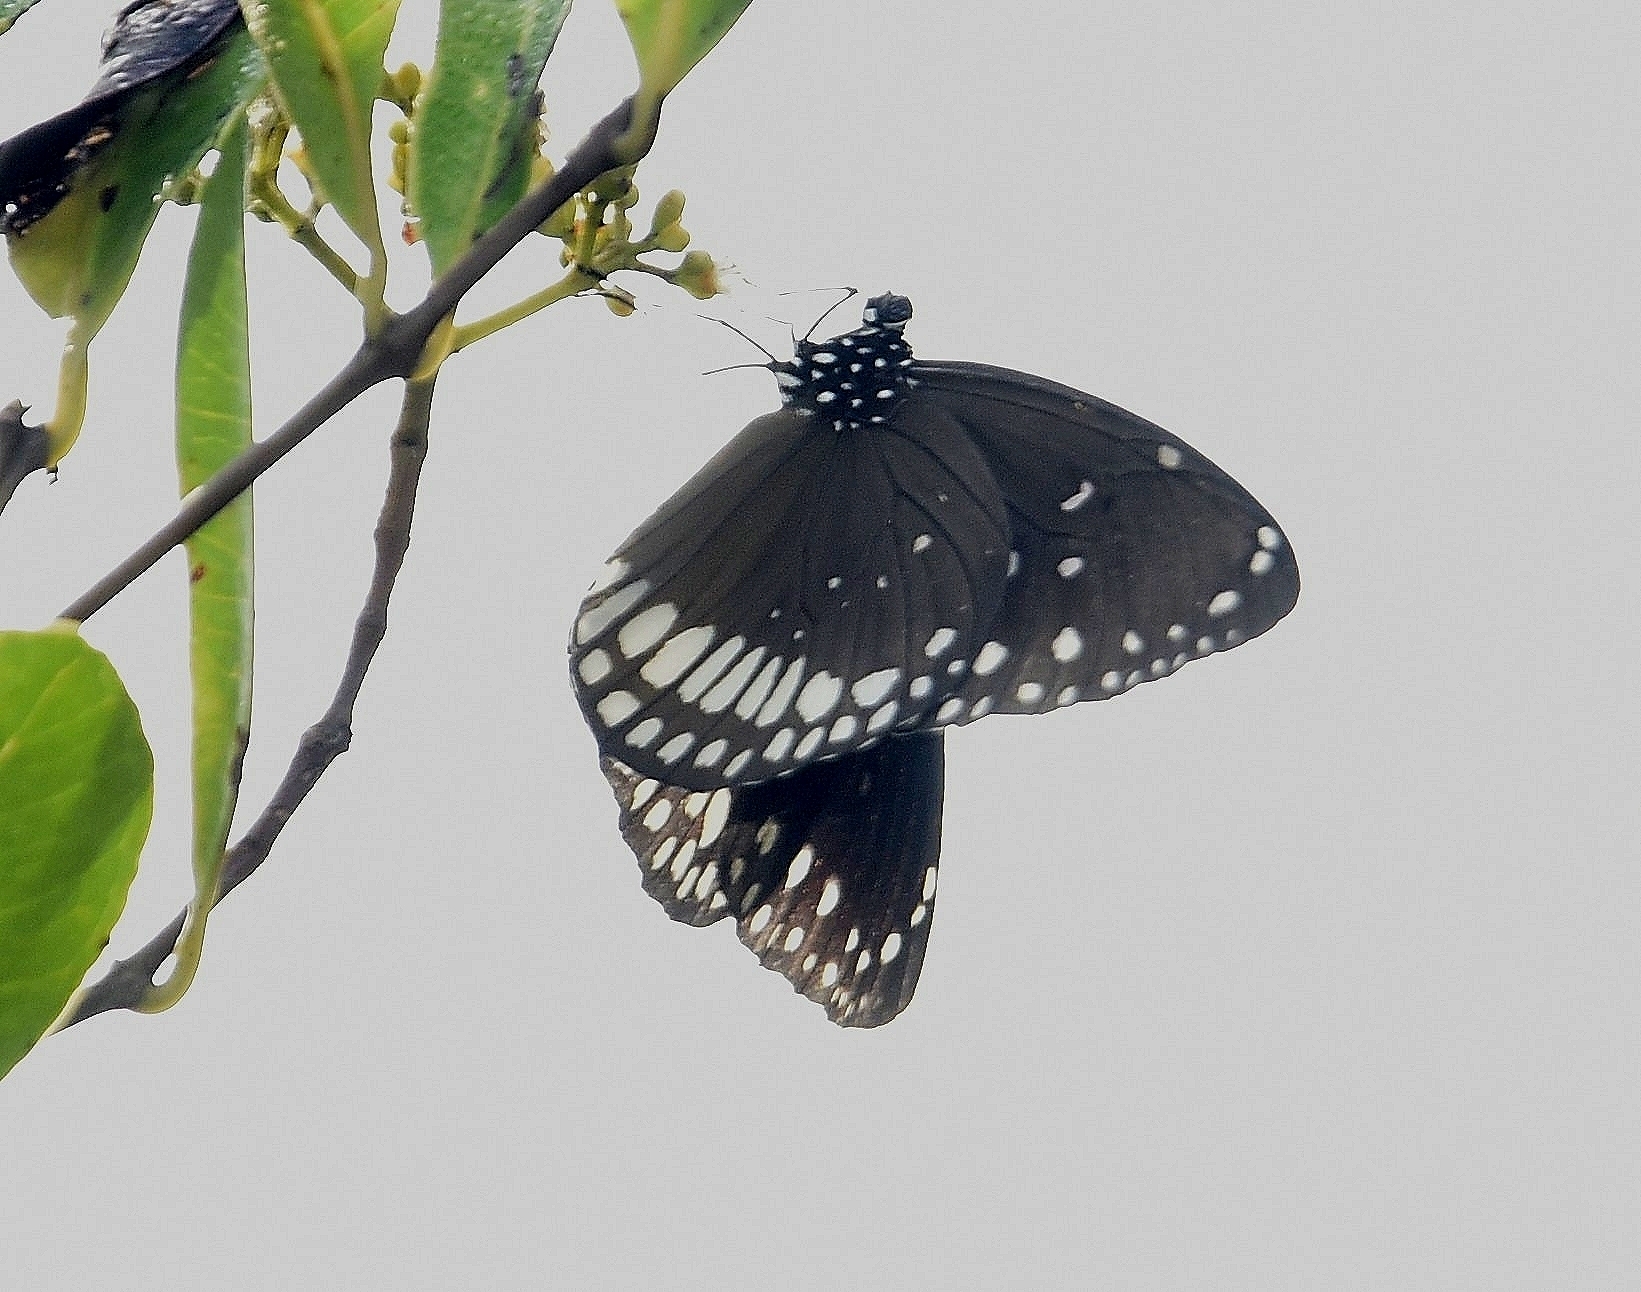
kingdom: Animalia
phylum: Arthropoda
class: Insecta
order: Lepidoptera
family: Nymphalidae
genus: Euploea
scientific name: Euploea core
